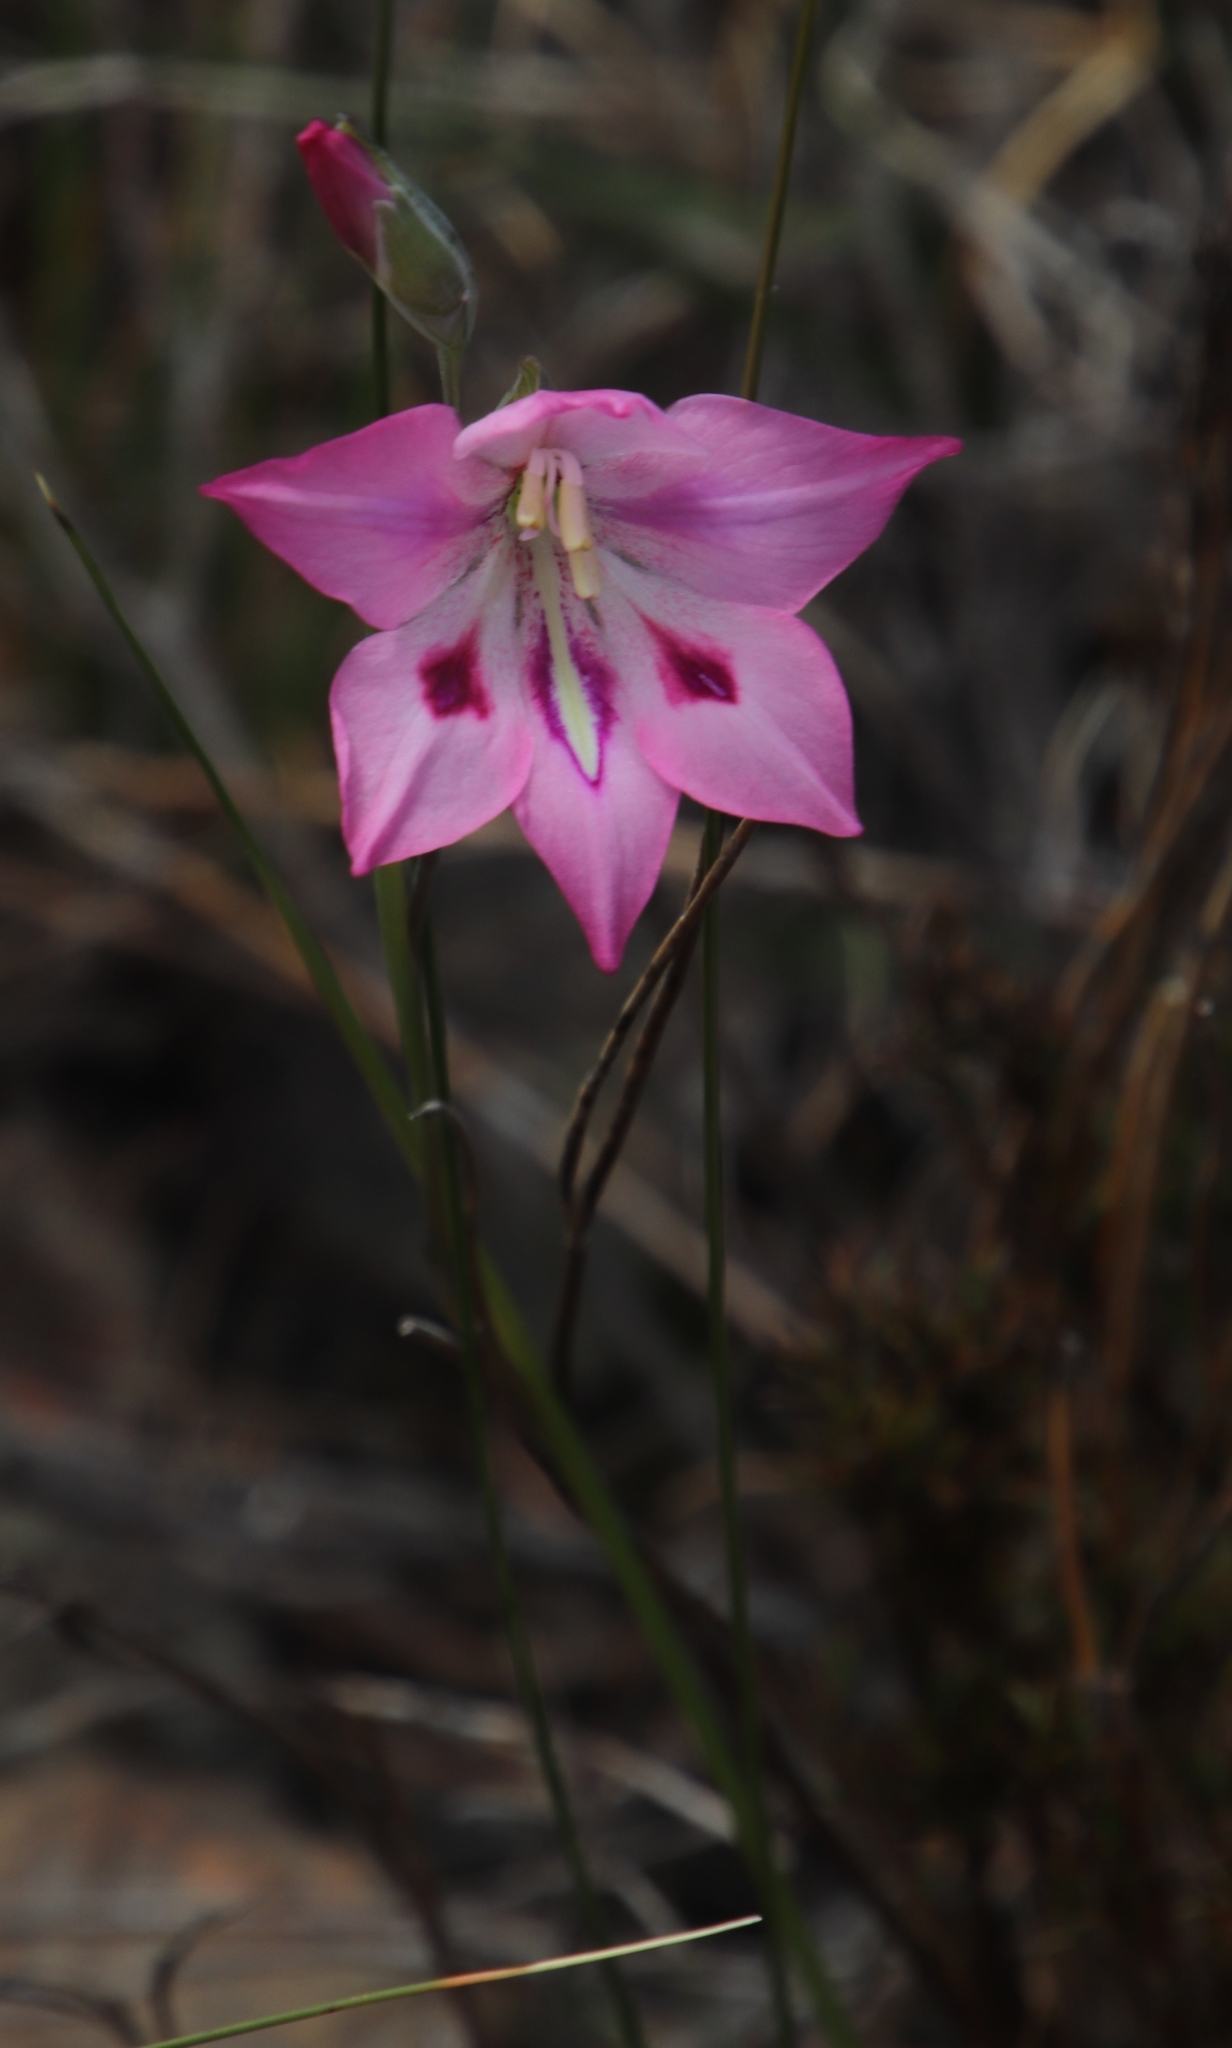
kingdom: Plantae
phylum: Tracheophyta
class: Liliopsida
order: Asparagales
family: Iridaceae
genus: Gladiolus
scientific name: Gladiolus inflatus
